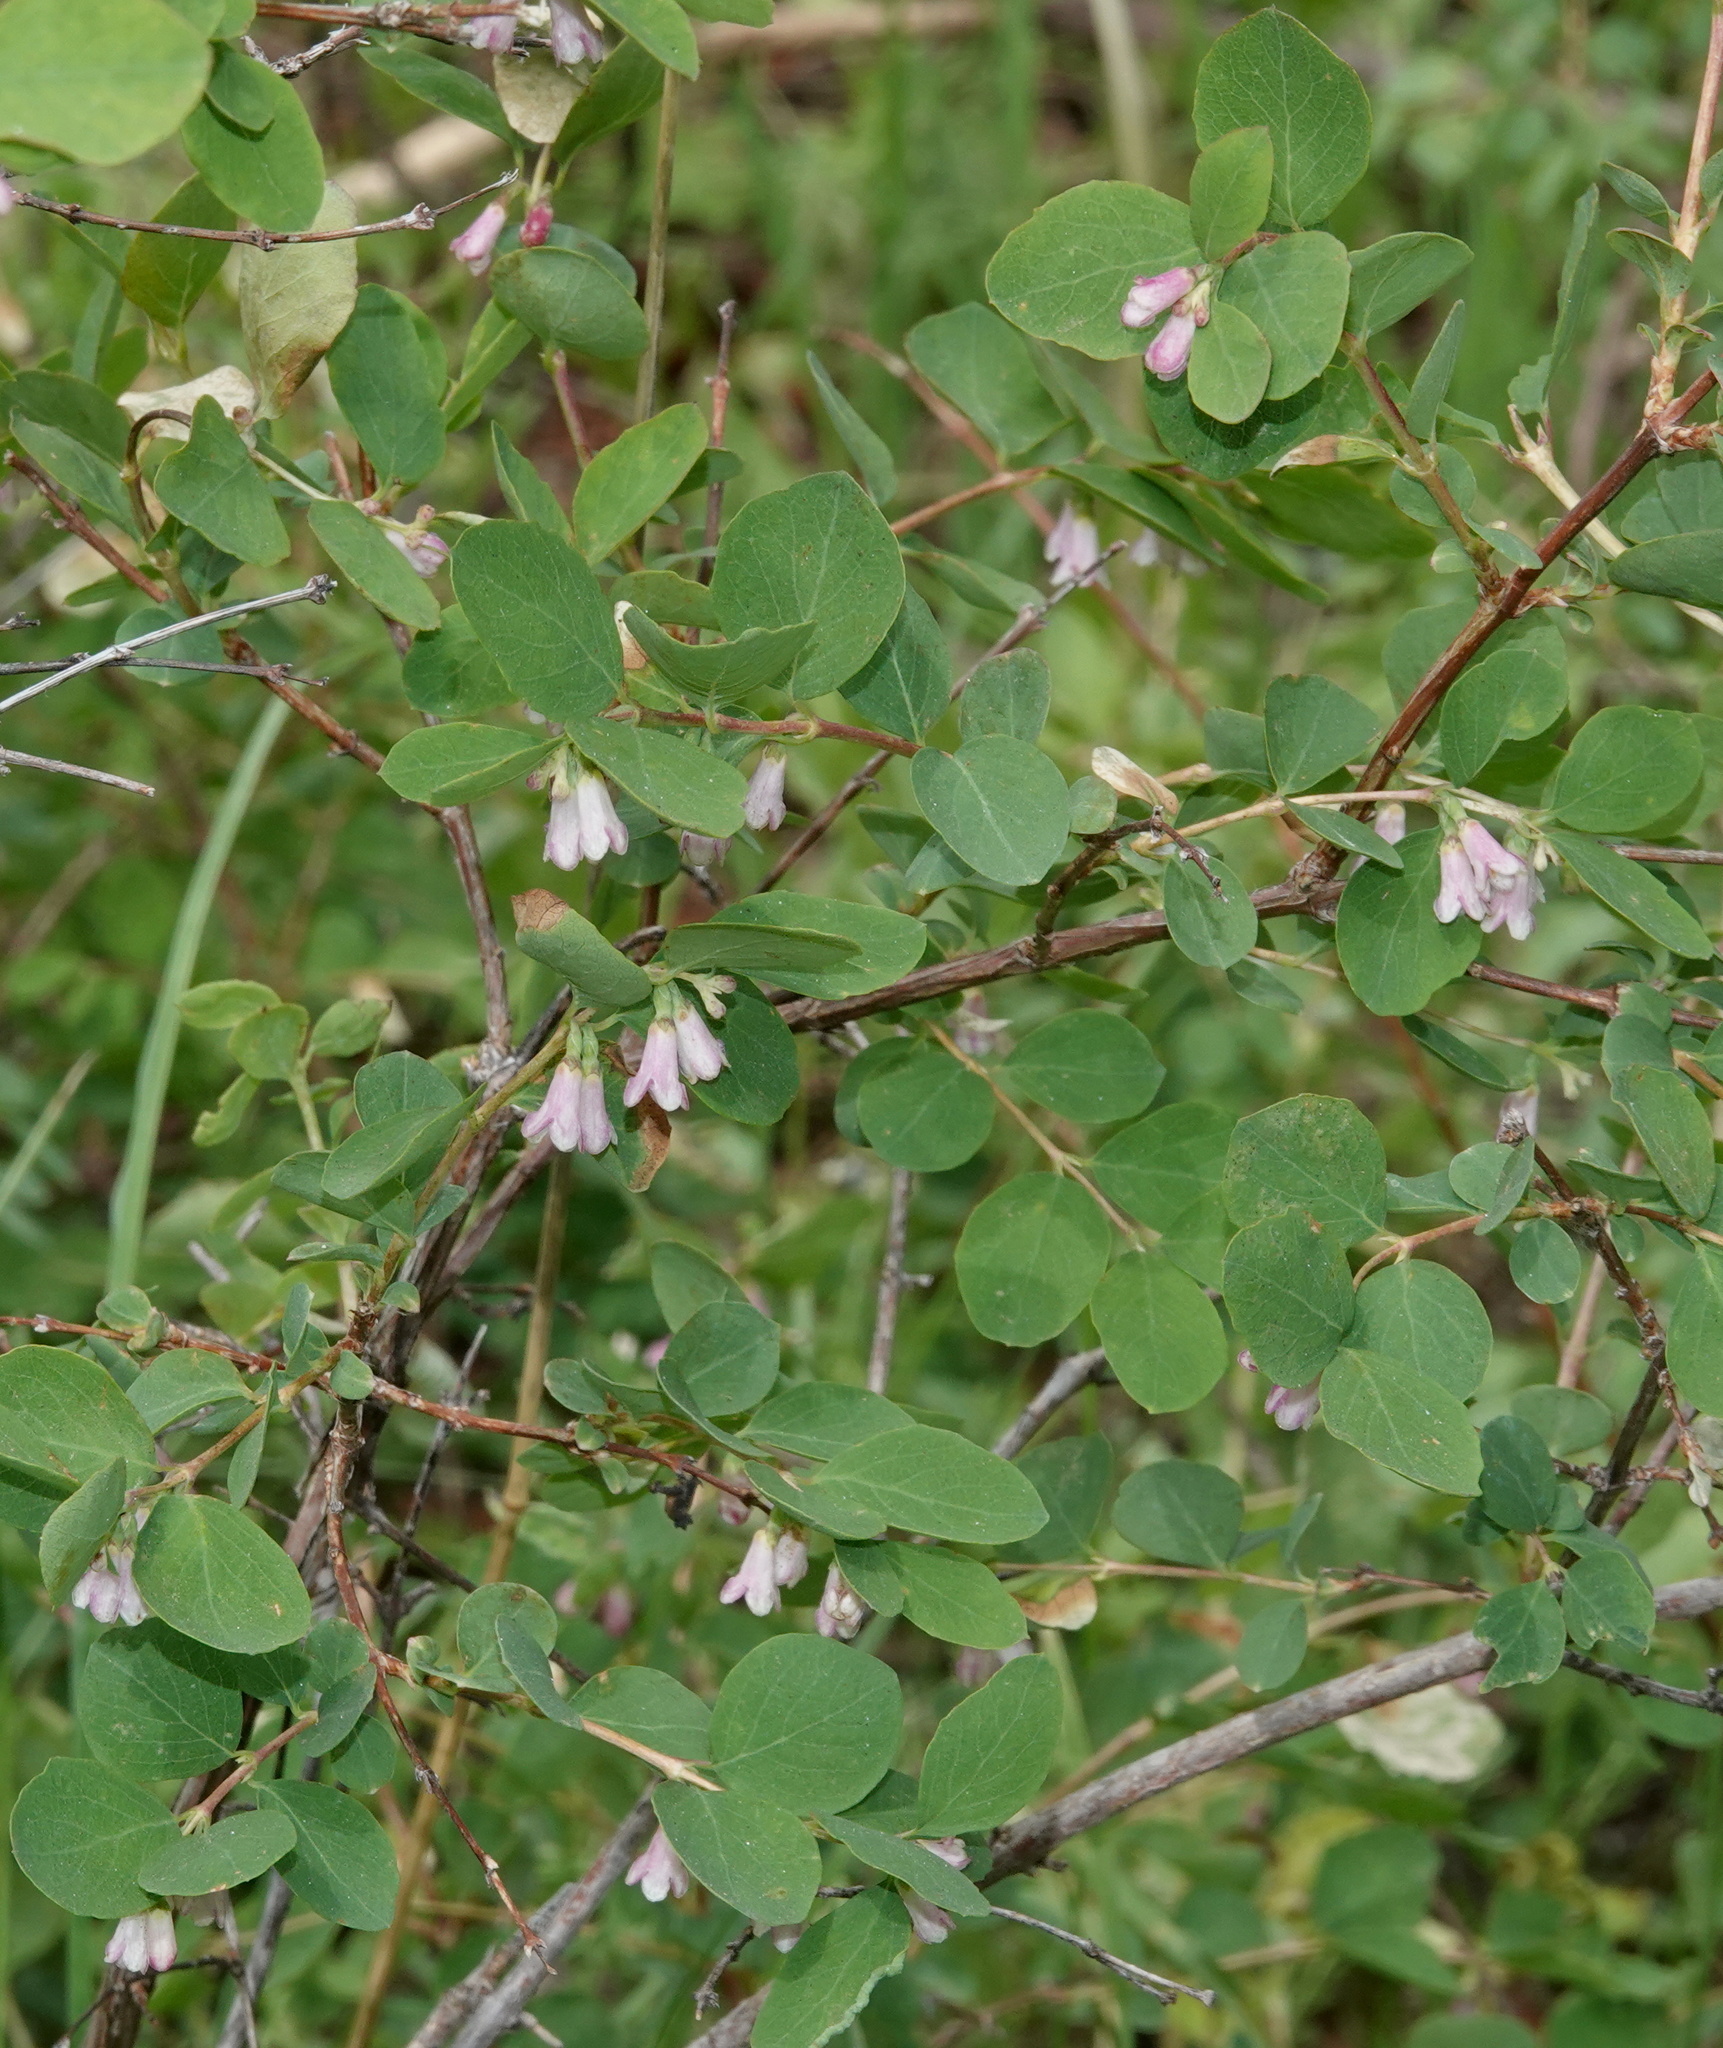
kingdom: Plantae
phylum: Tracheophyta
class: Magnoliopsida
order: Dipsacales
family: Caprifoliaceae
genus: Symphoricarpos
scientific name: Symphoricarpos rotundifolius
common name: Round-leaved snowberry
